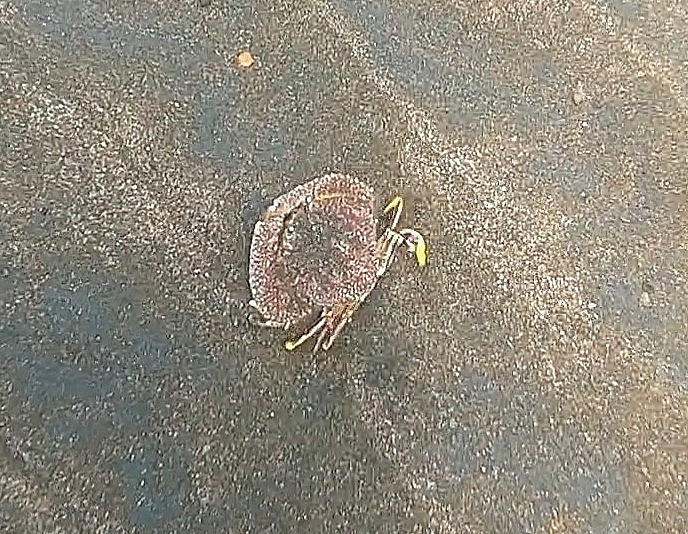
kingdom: Animalia
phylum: Arthropoda
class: Malacostraca
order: Decapoda
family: Calappidae
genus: Cryptosoma
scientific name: Cryptosoma cristatum
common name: Lesser-spotted shame-faced crab
